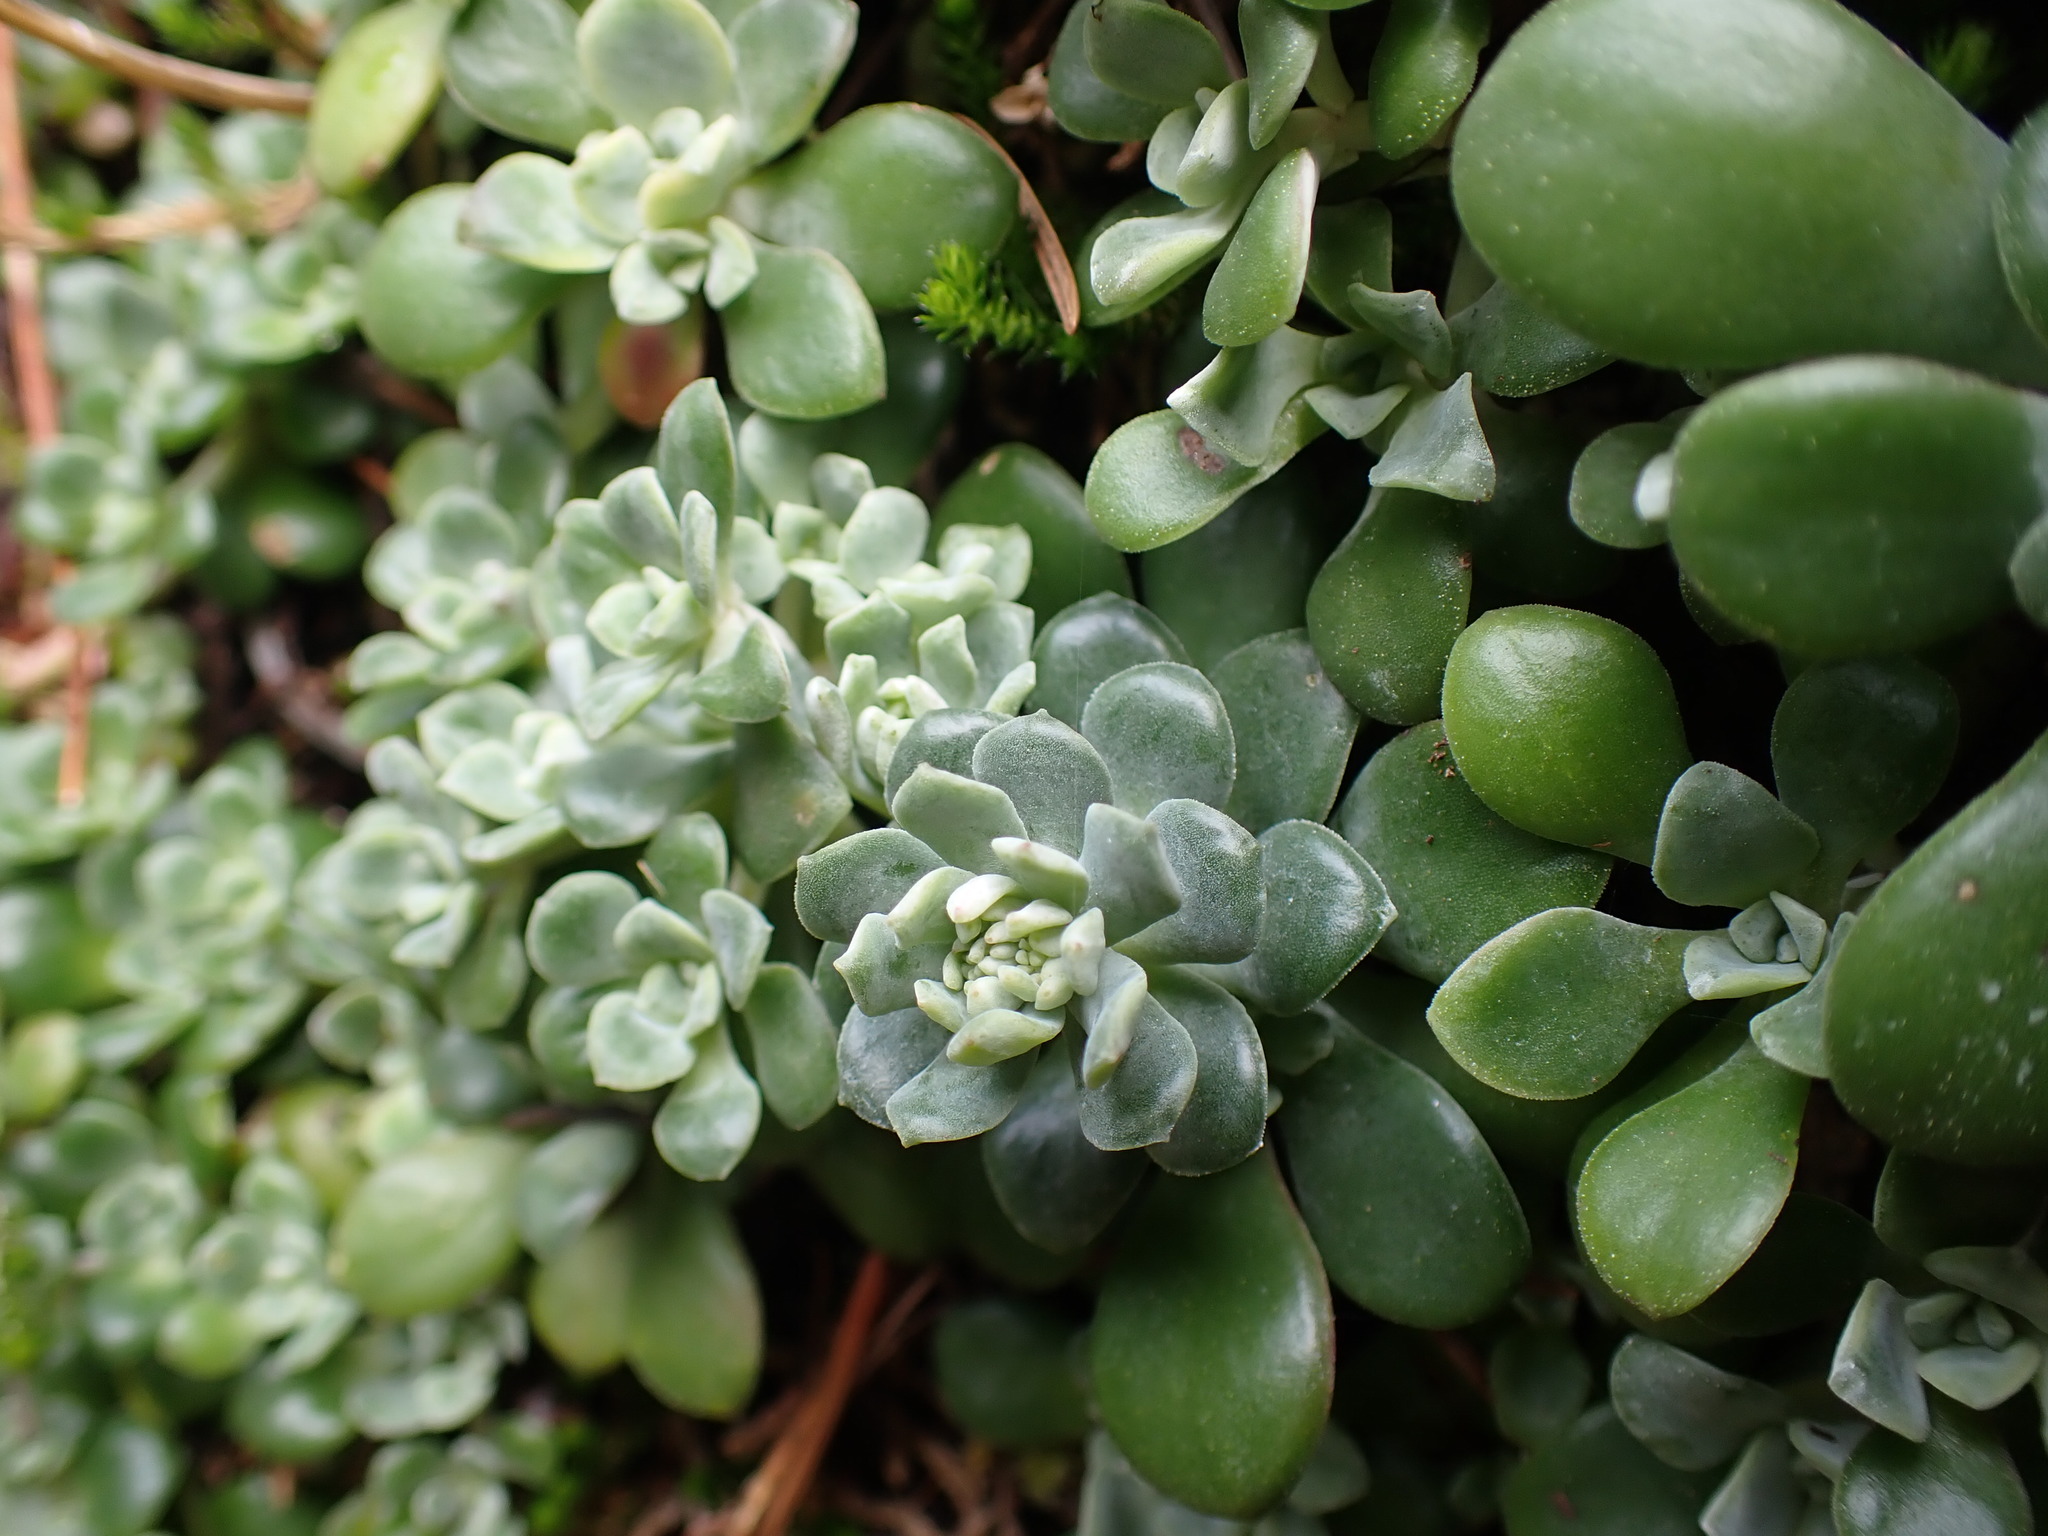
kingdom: Plantae
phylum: Tracheophyta
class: Magnoliopsida
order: Saxifragales
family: Crassulaceae
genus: Sedum
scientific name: Sedum spathulifolium
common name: Colorado stonecrop
